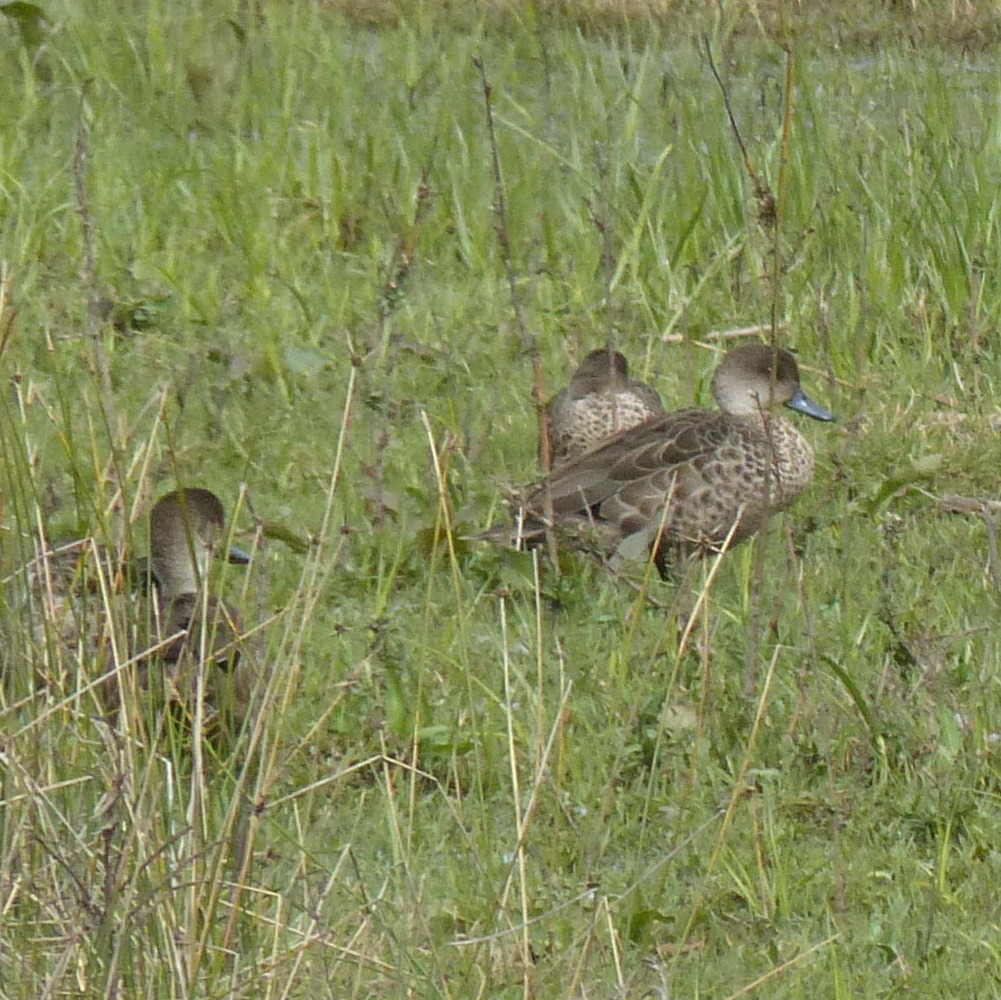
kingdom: Animalia
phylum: Chordata
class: Aves
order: Anseriformes
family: Anatidae
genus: Anas
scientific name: Anas gracilis
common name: Grey teal
